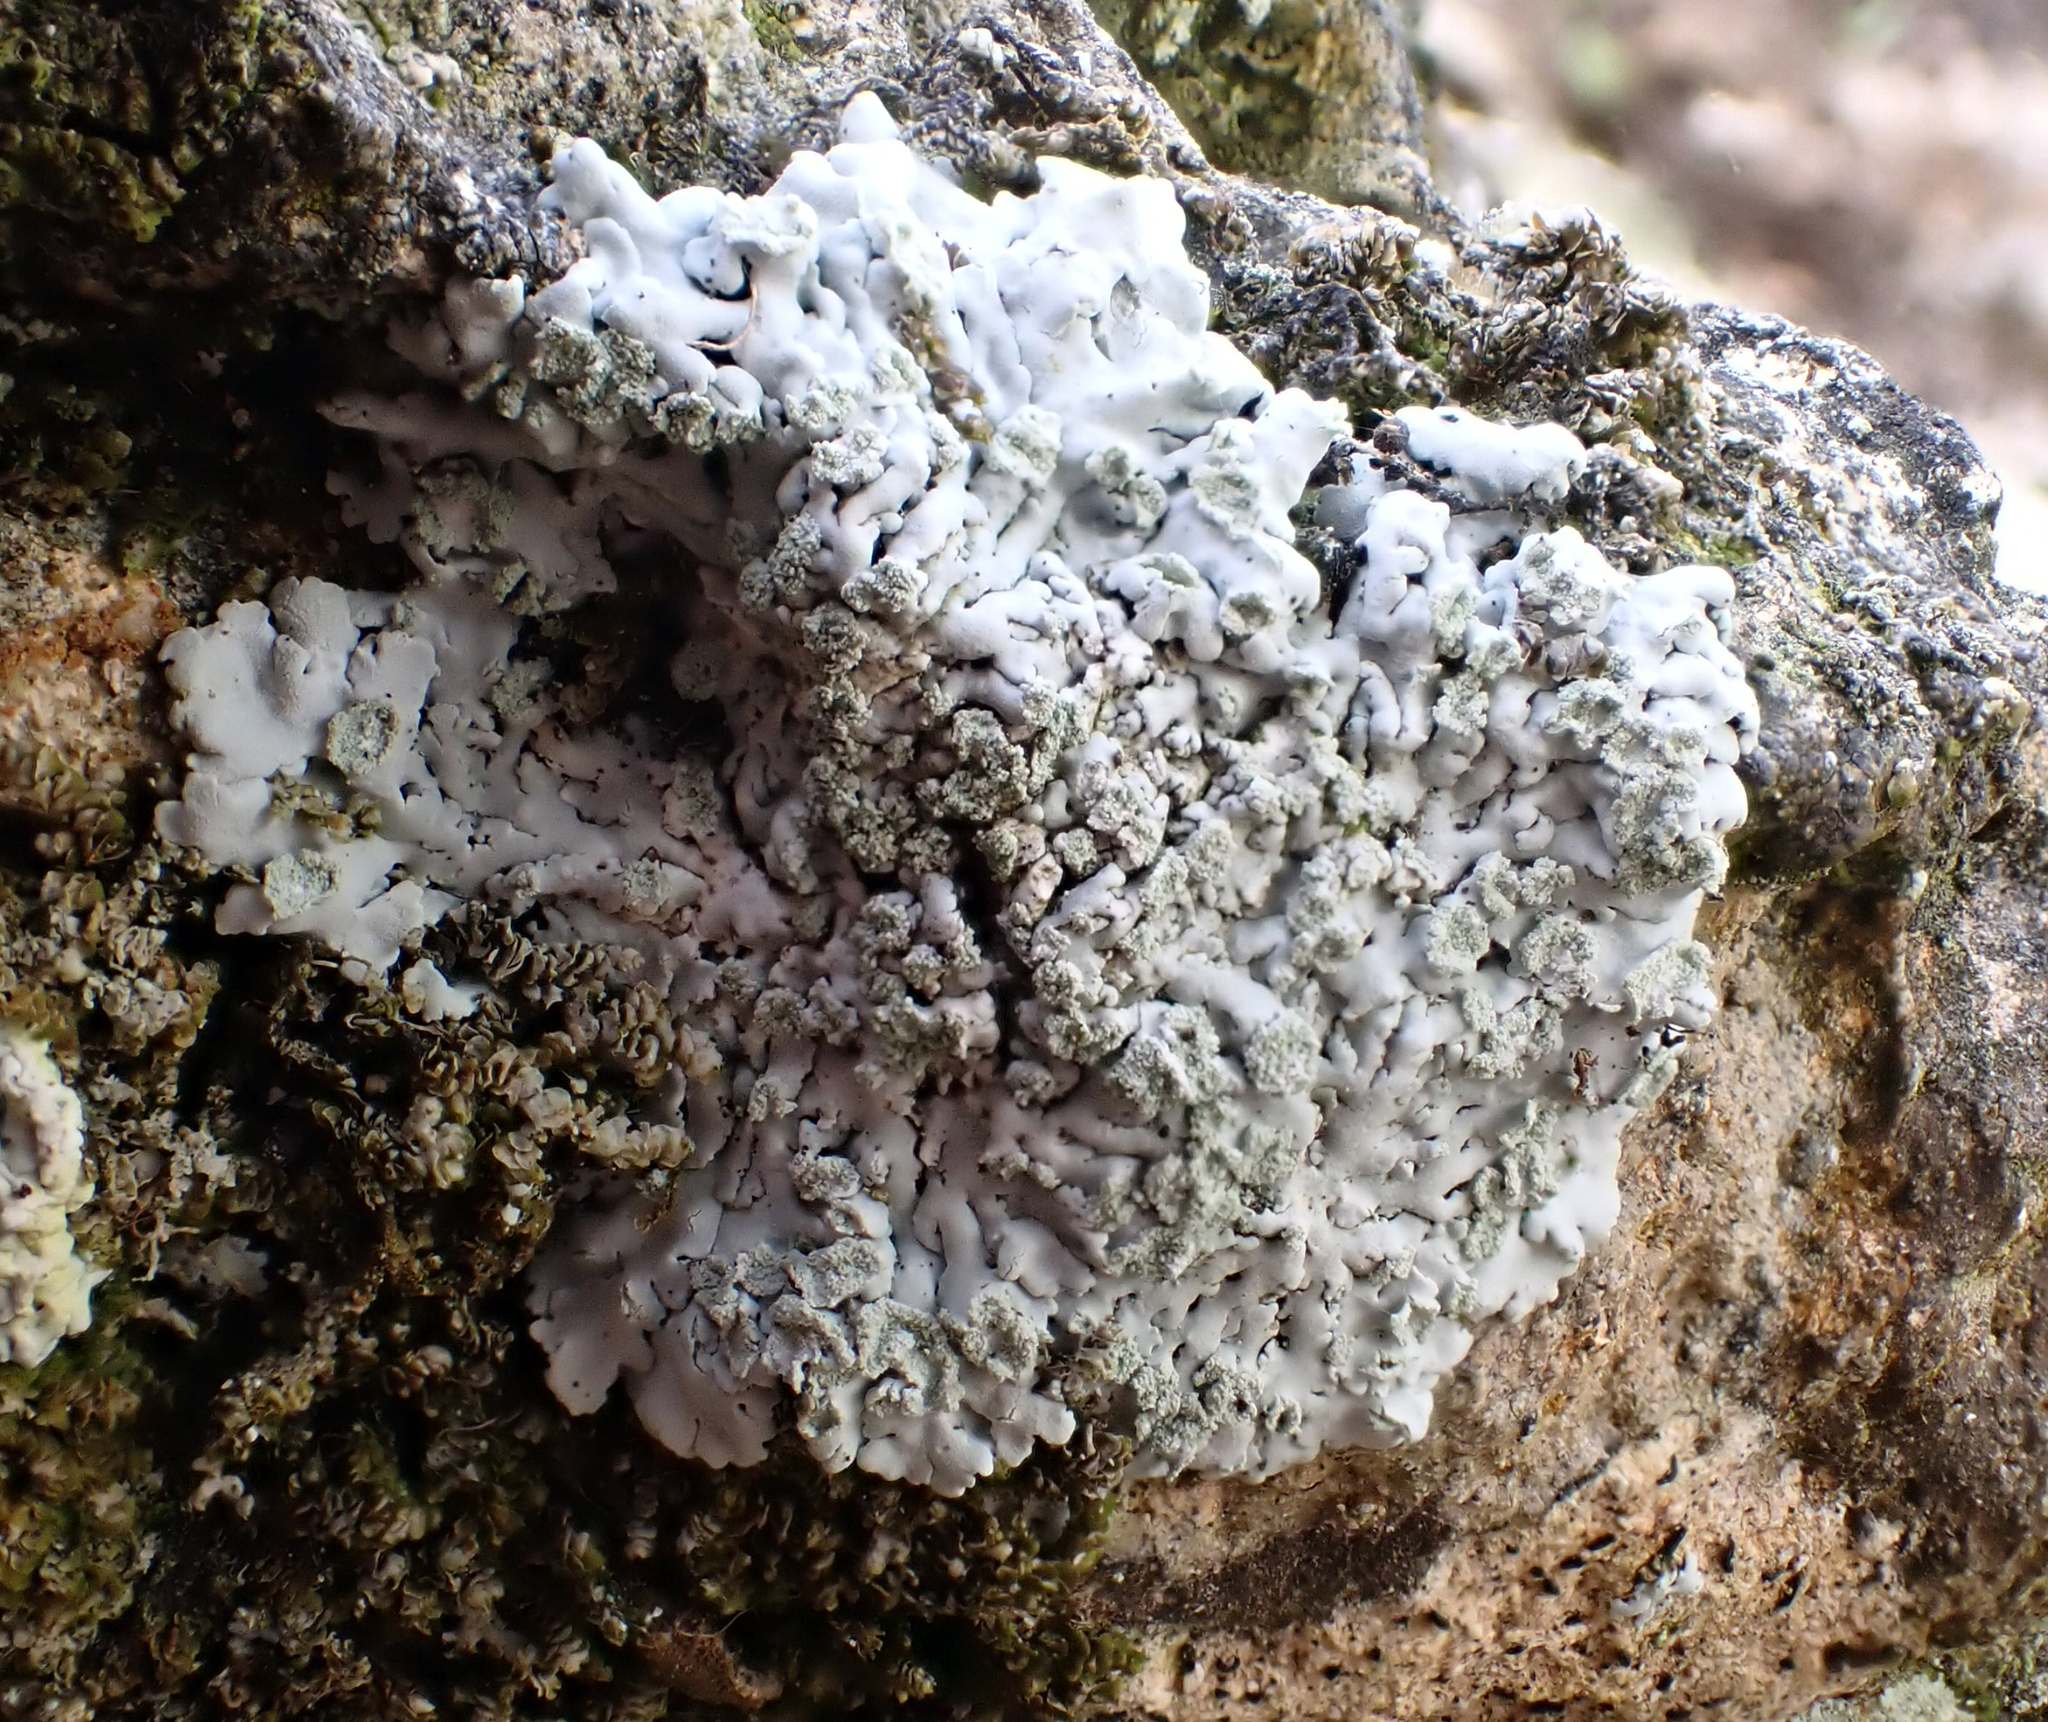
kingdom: Fungi
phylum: Ascomycota
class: Lecanoromycetes
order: Caliciales
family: Physciaceae
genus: Physcia
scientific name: Physcia poncinsii
